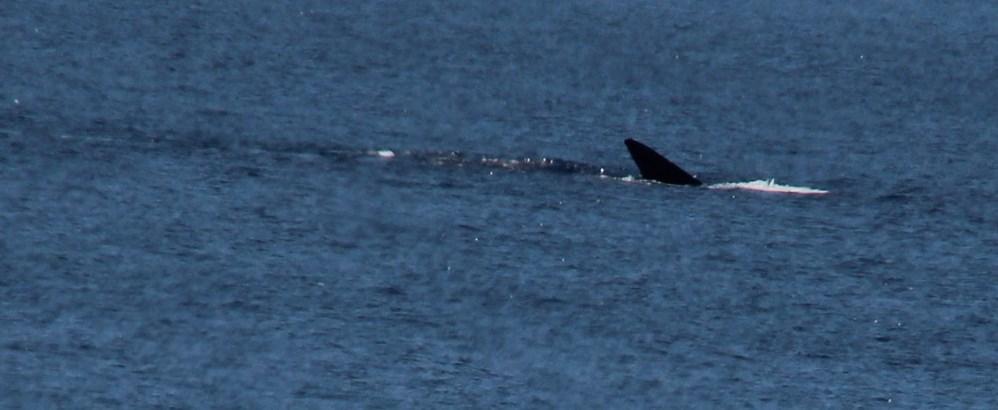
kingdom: Animalia
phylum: Chordata
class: Mammalia
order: Cetacea
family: Balaenidae
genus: Eubalaena
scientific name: Eubalaena australis
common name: Southern right whale
